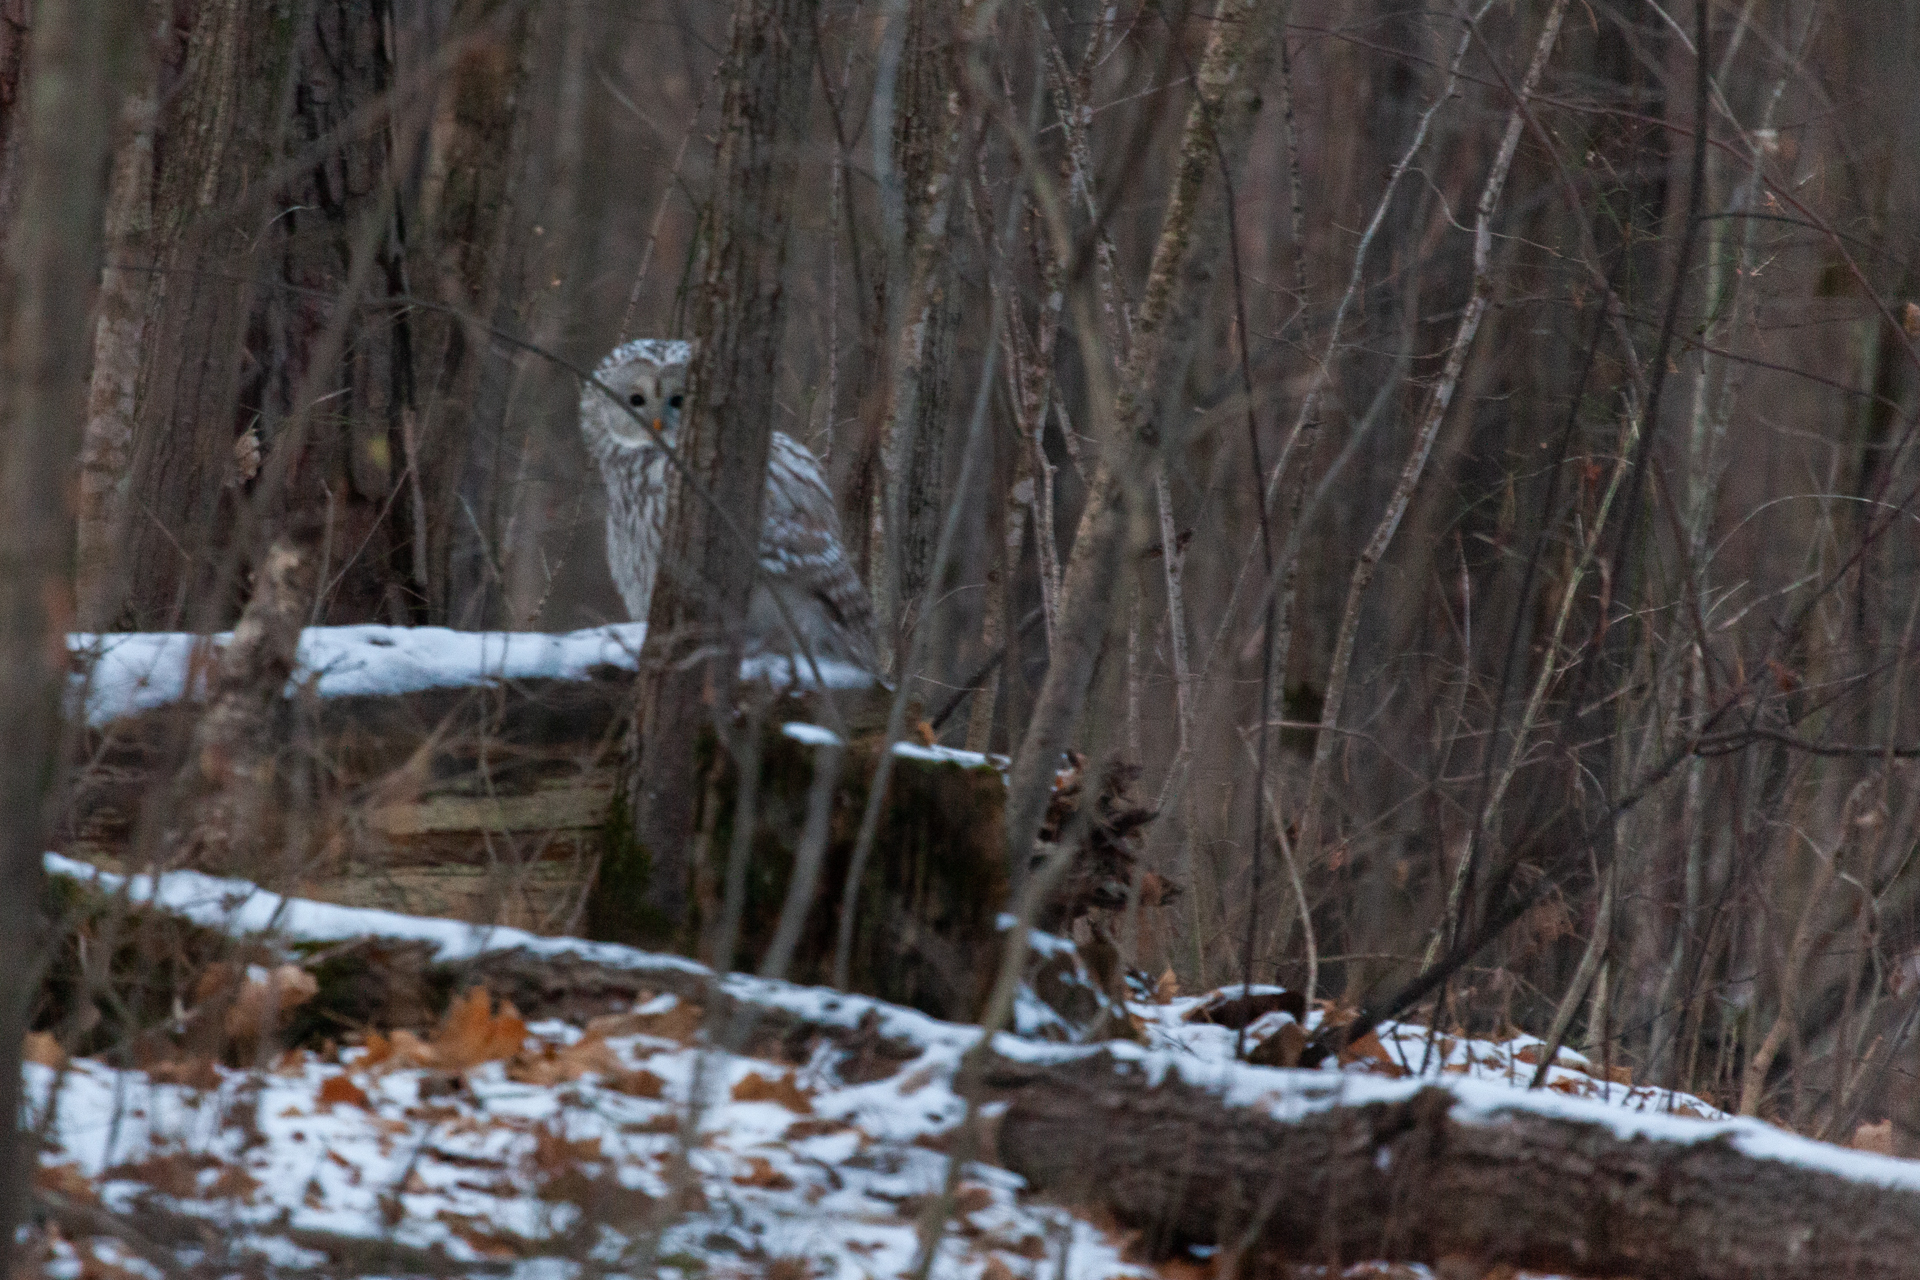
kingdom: Animalia
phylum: Chordata
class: Aves
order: Strigiformes
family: Strigidae
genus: Strix
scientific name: Strix uralensis
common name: Ural owl
